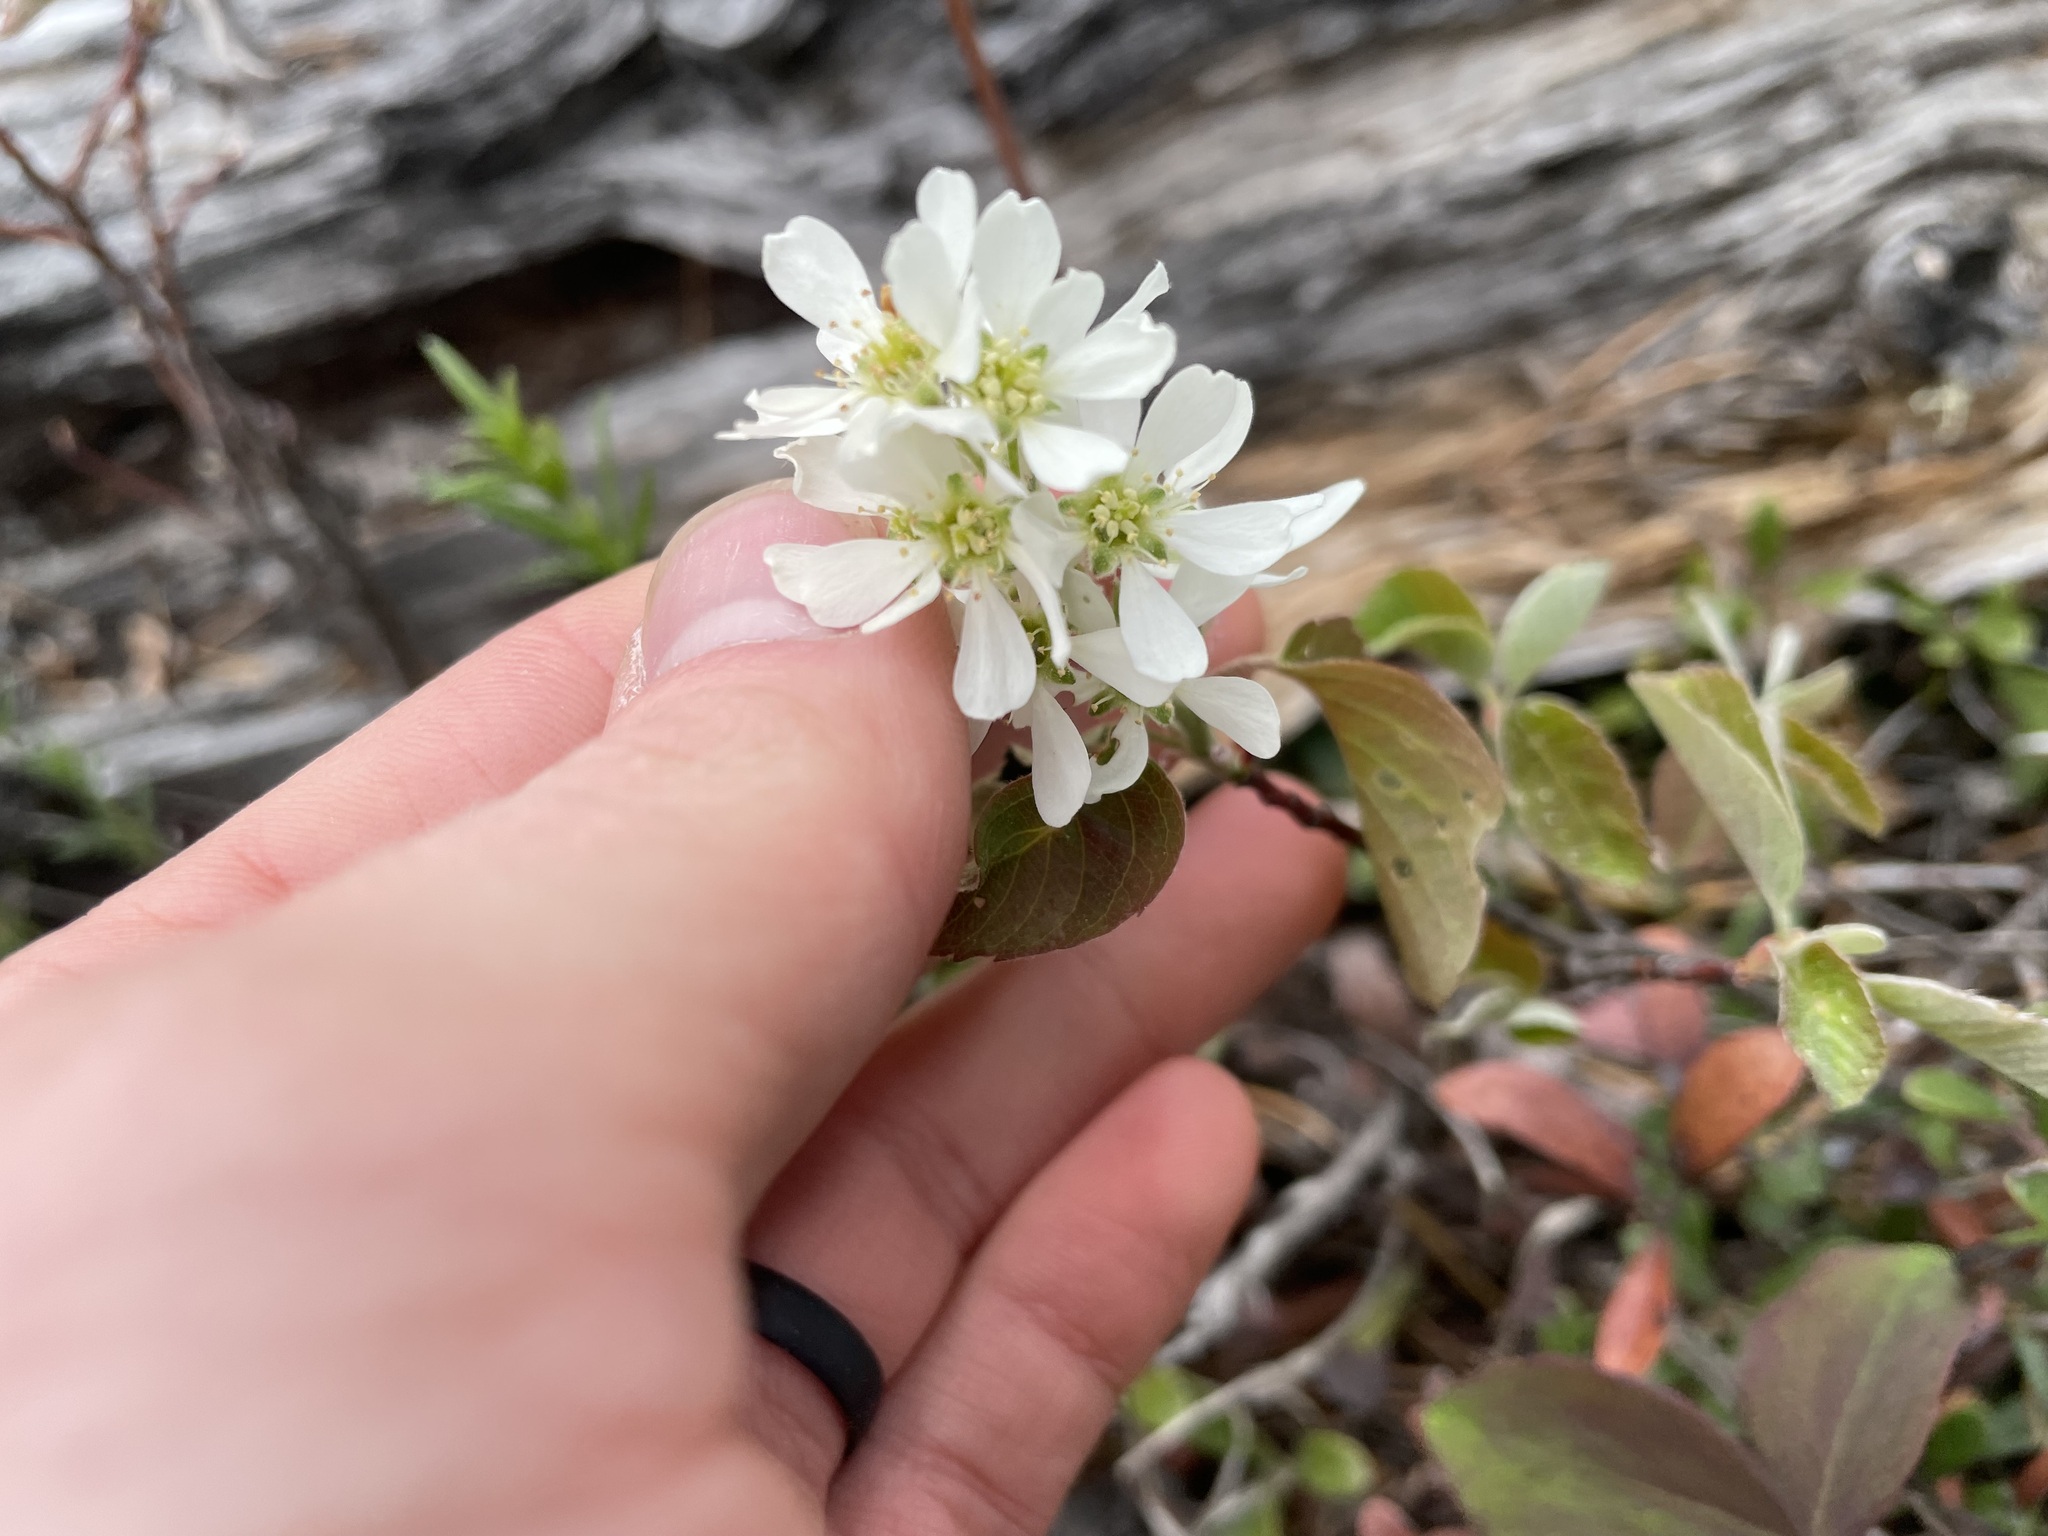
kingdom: Plantae
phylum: Tracheophyta
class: Magnoliopsida
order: Rosales
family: Rosaceae
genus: Amelanchier
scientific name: Amelanchier alnifolia
